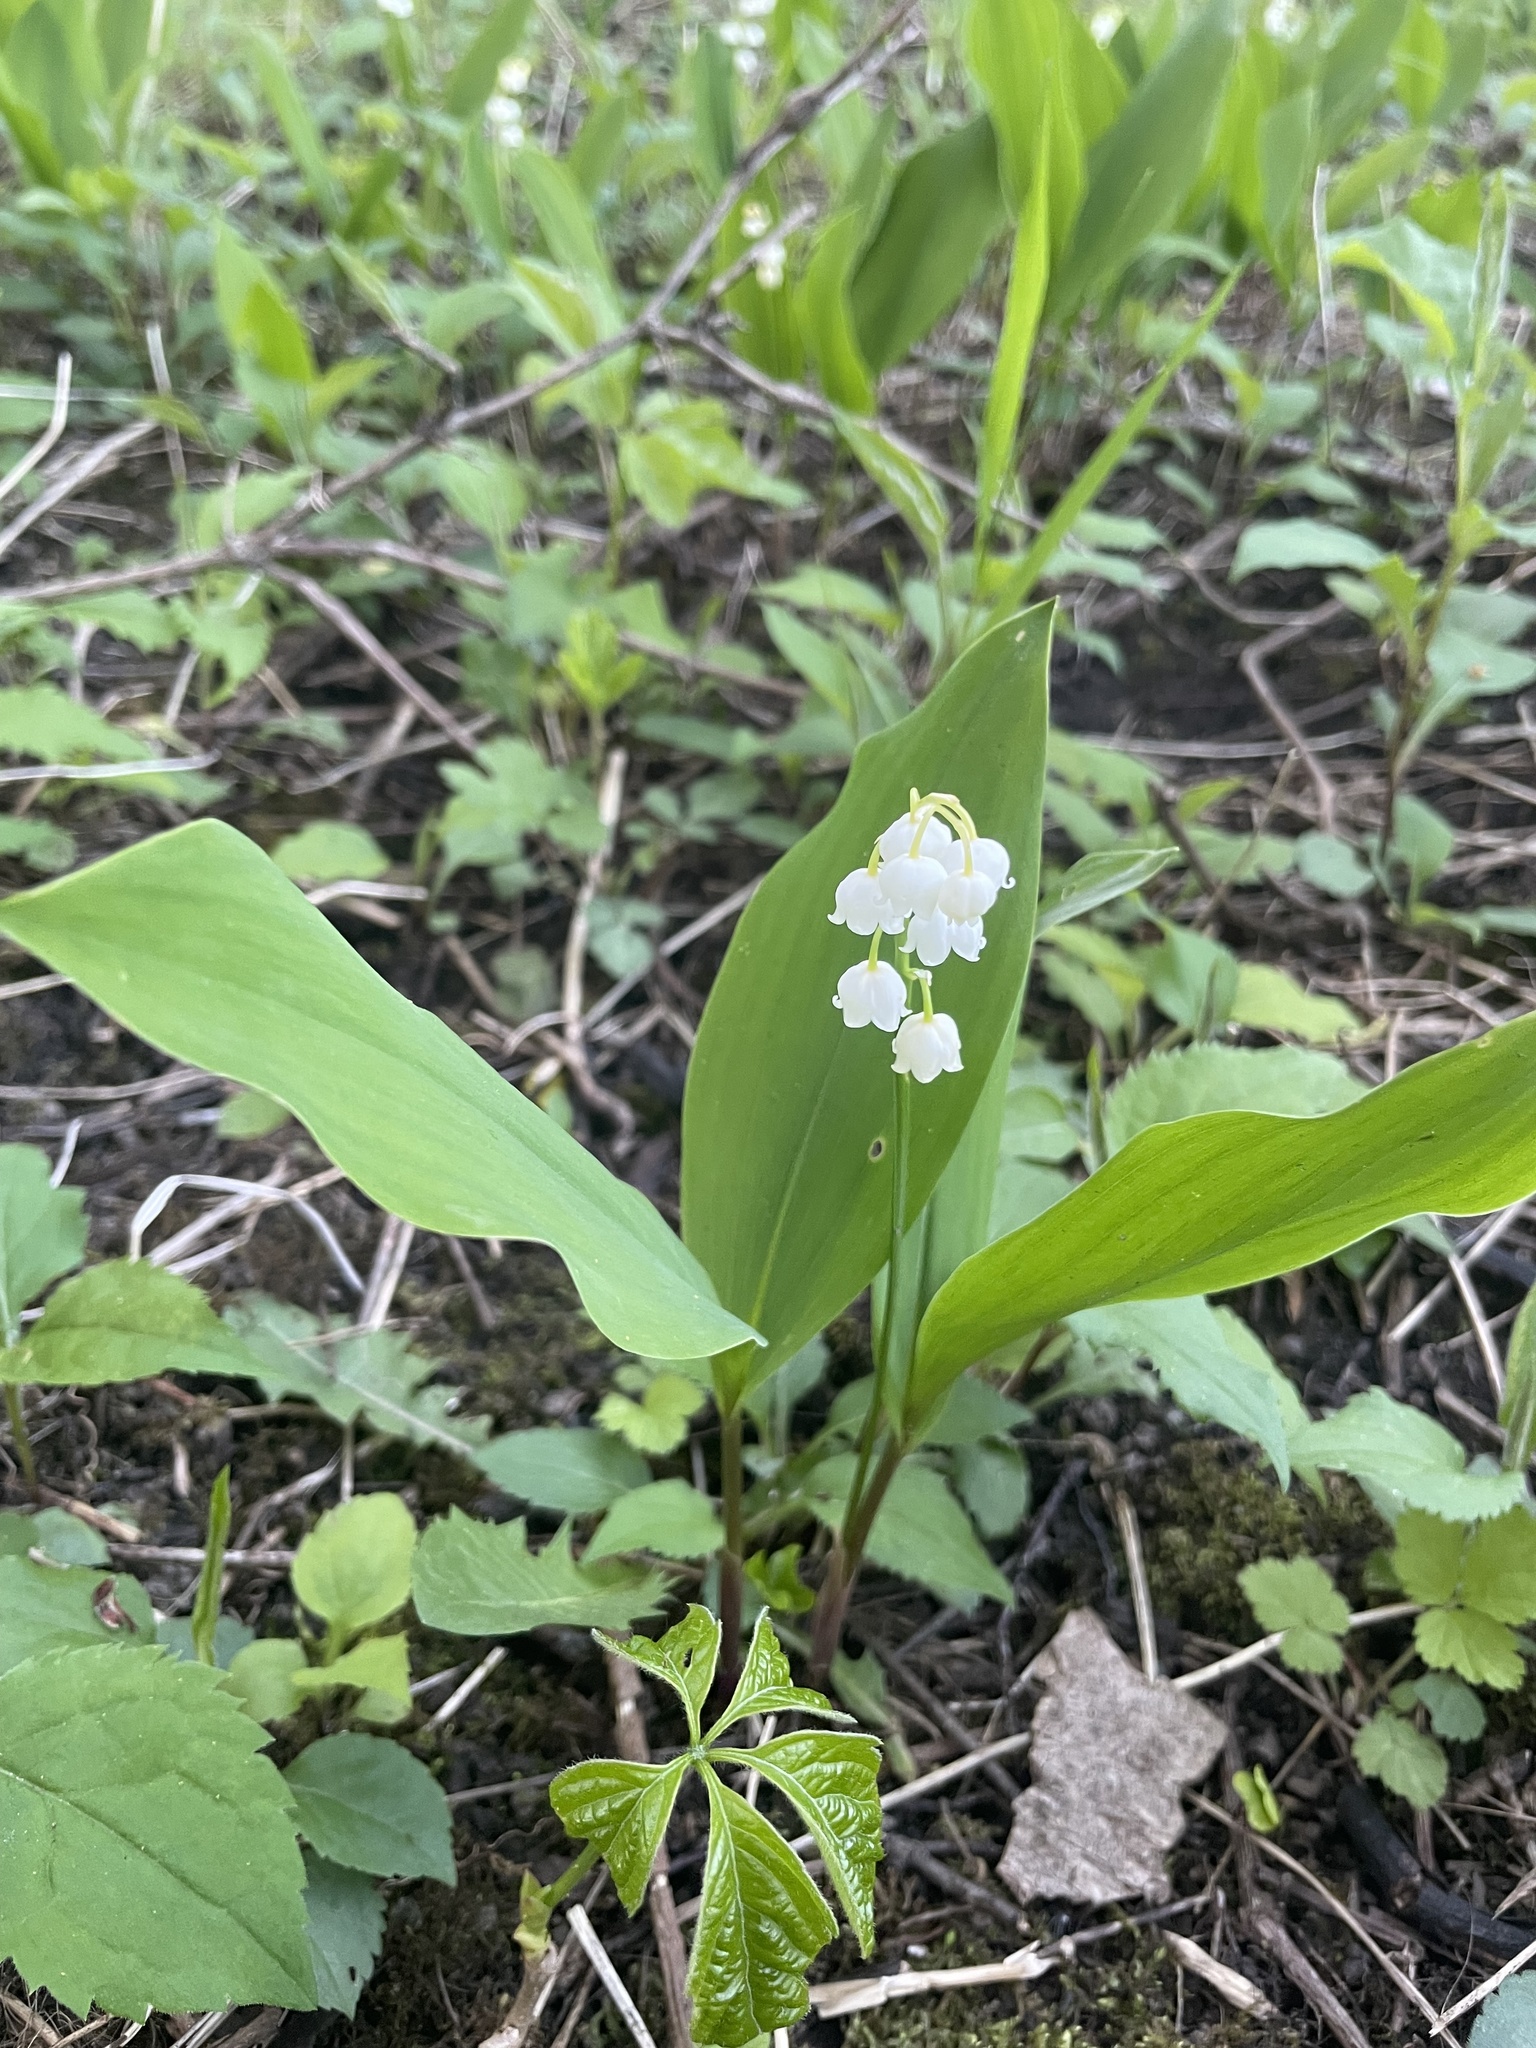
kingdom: Plantae
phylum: Tracheophyta
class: Liliopsida
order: Asparagales
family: Asparagaceae
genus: Convallaria
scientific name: Convallaria majalis
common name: Lily-of-the-valley
